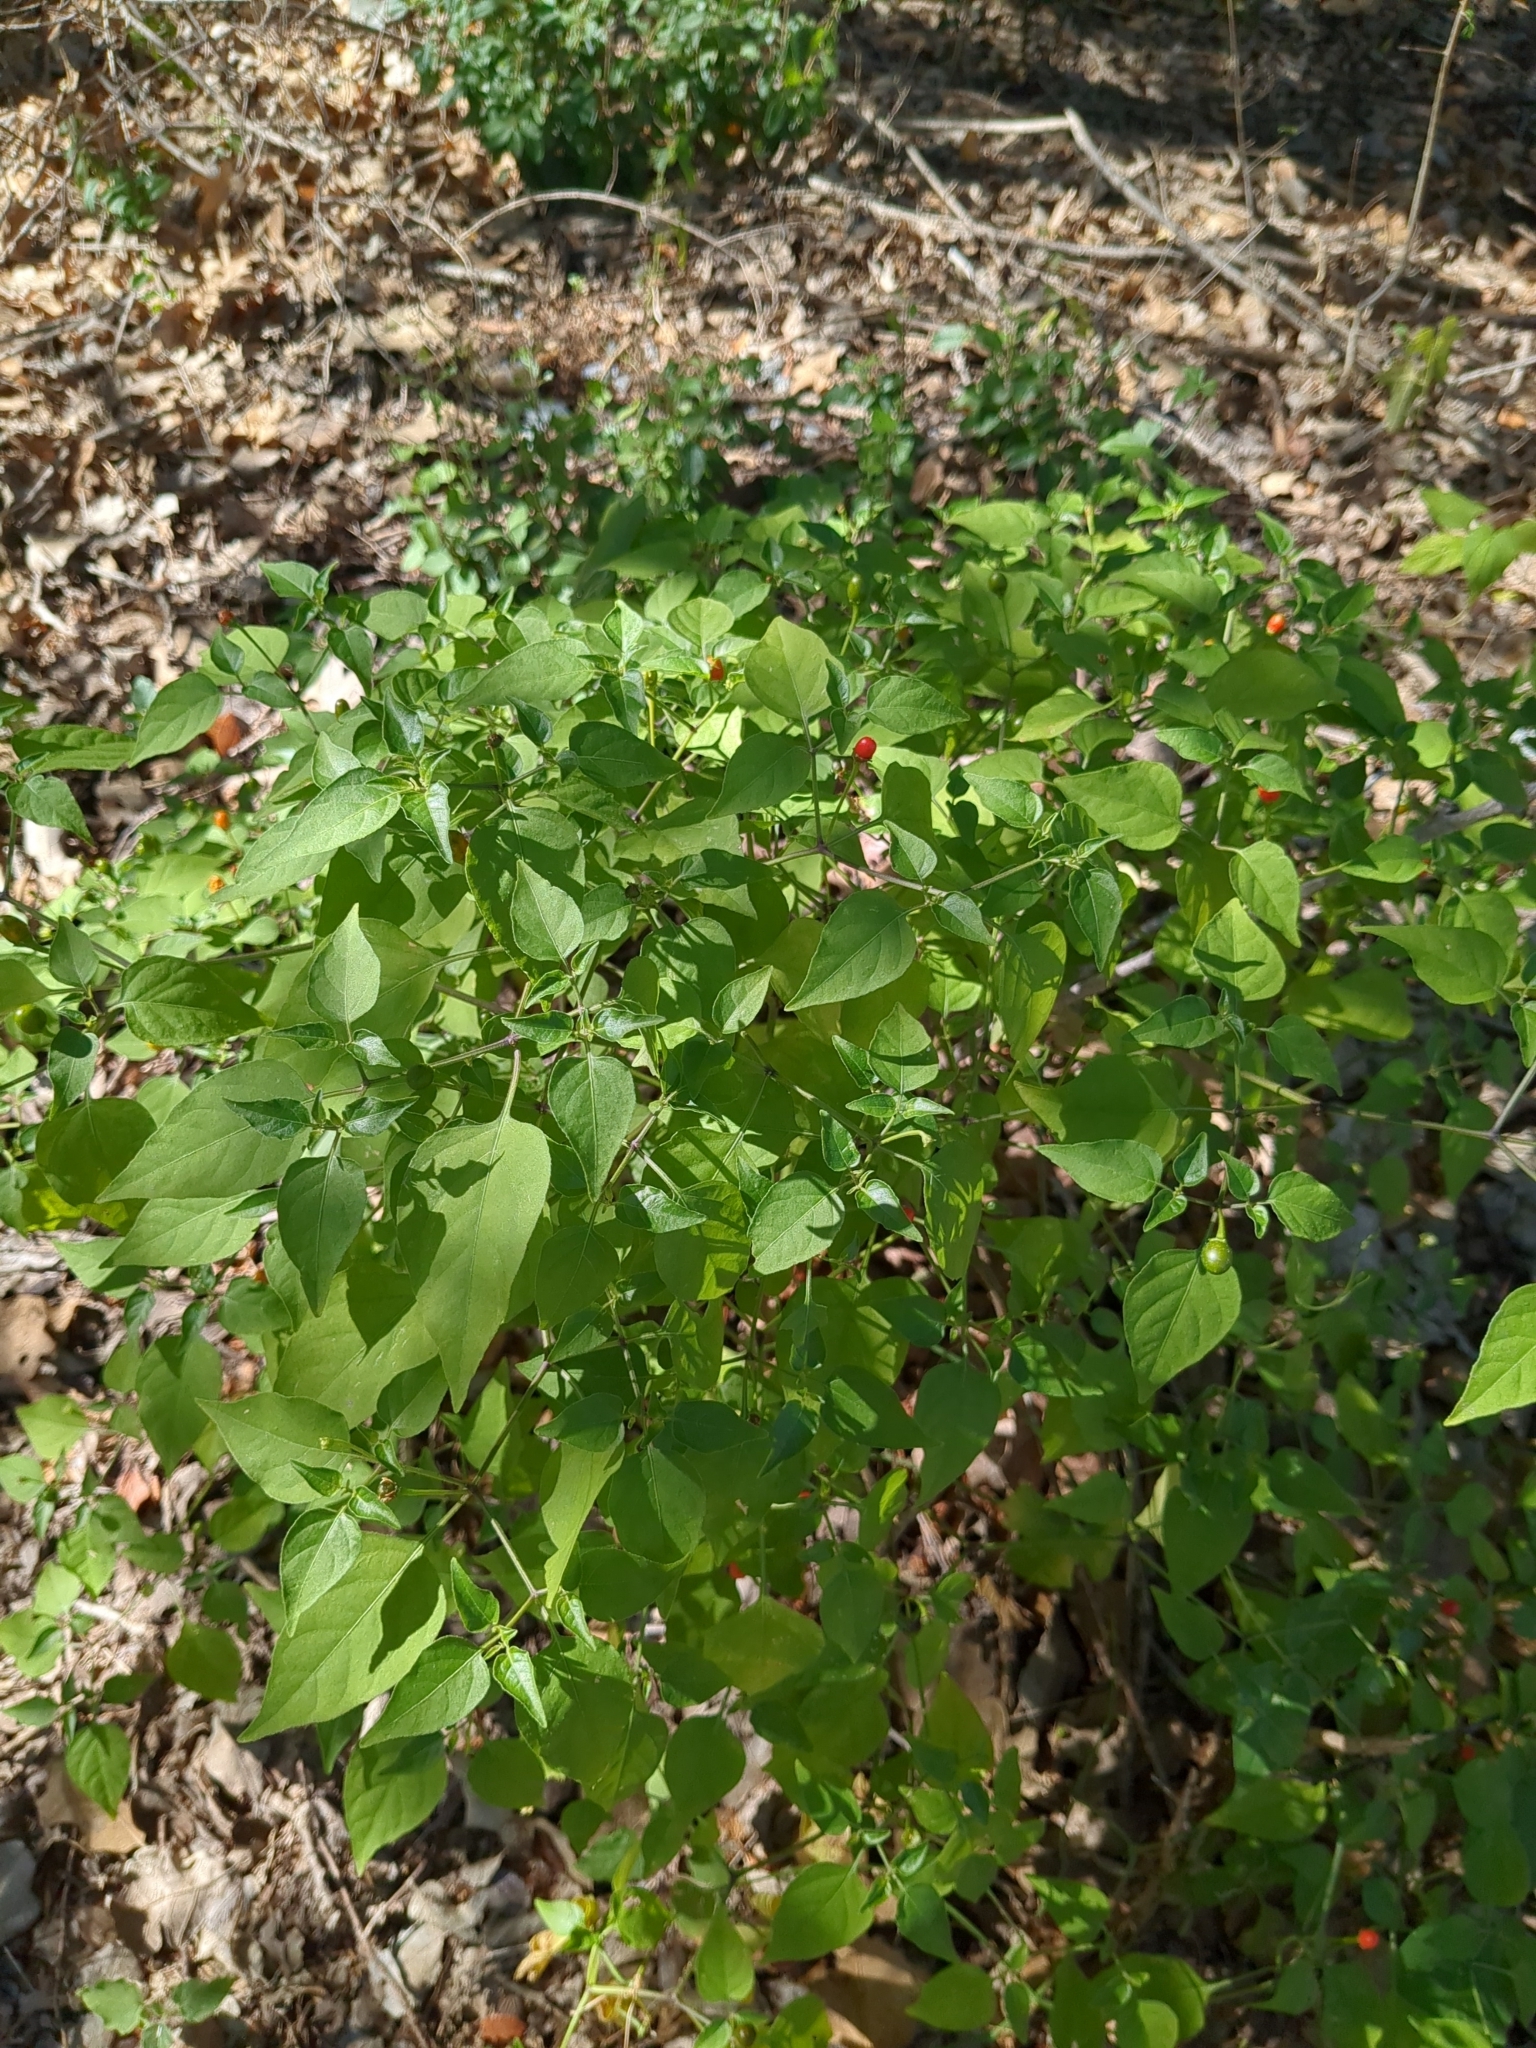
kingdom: Plantae
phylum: Tracheophyta
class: Magnoliopsida
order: Solanales
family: Solanaceae
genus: Capsicum
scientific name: Capsicum annuum
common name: Sweet pepper
